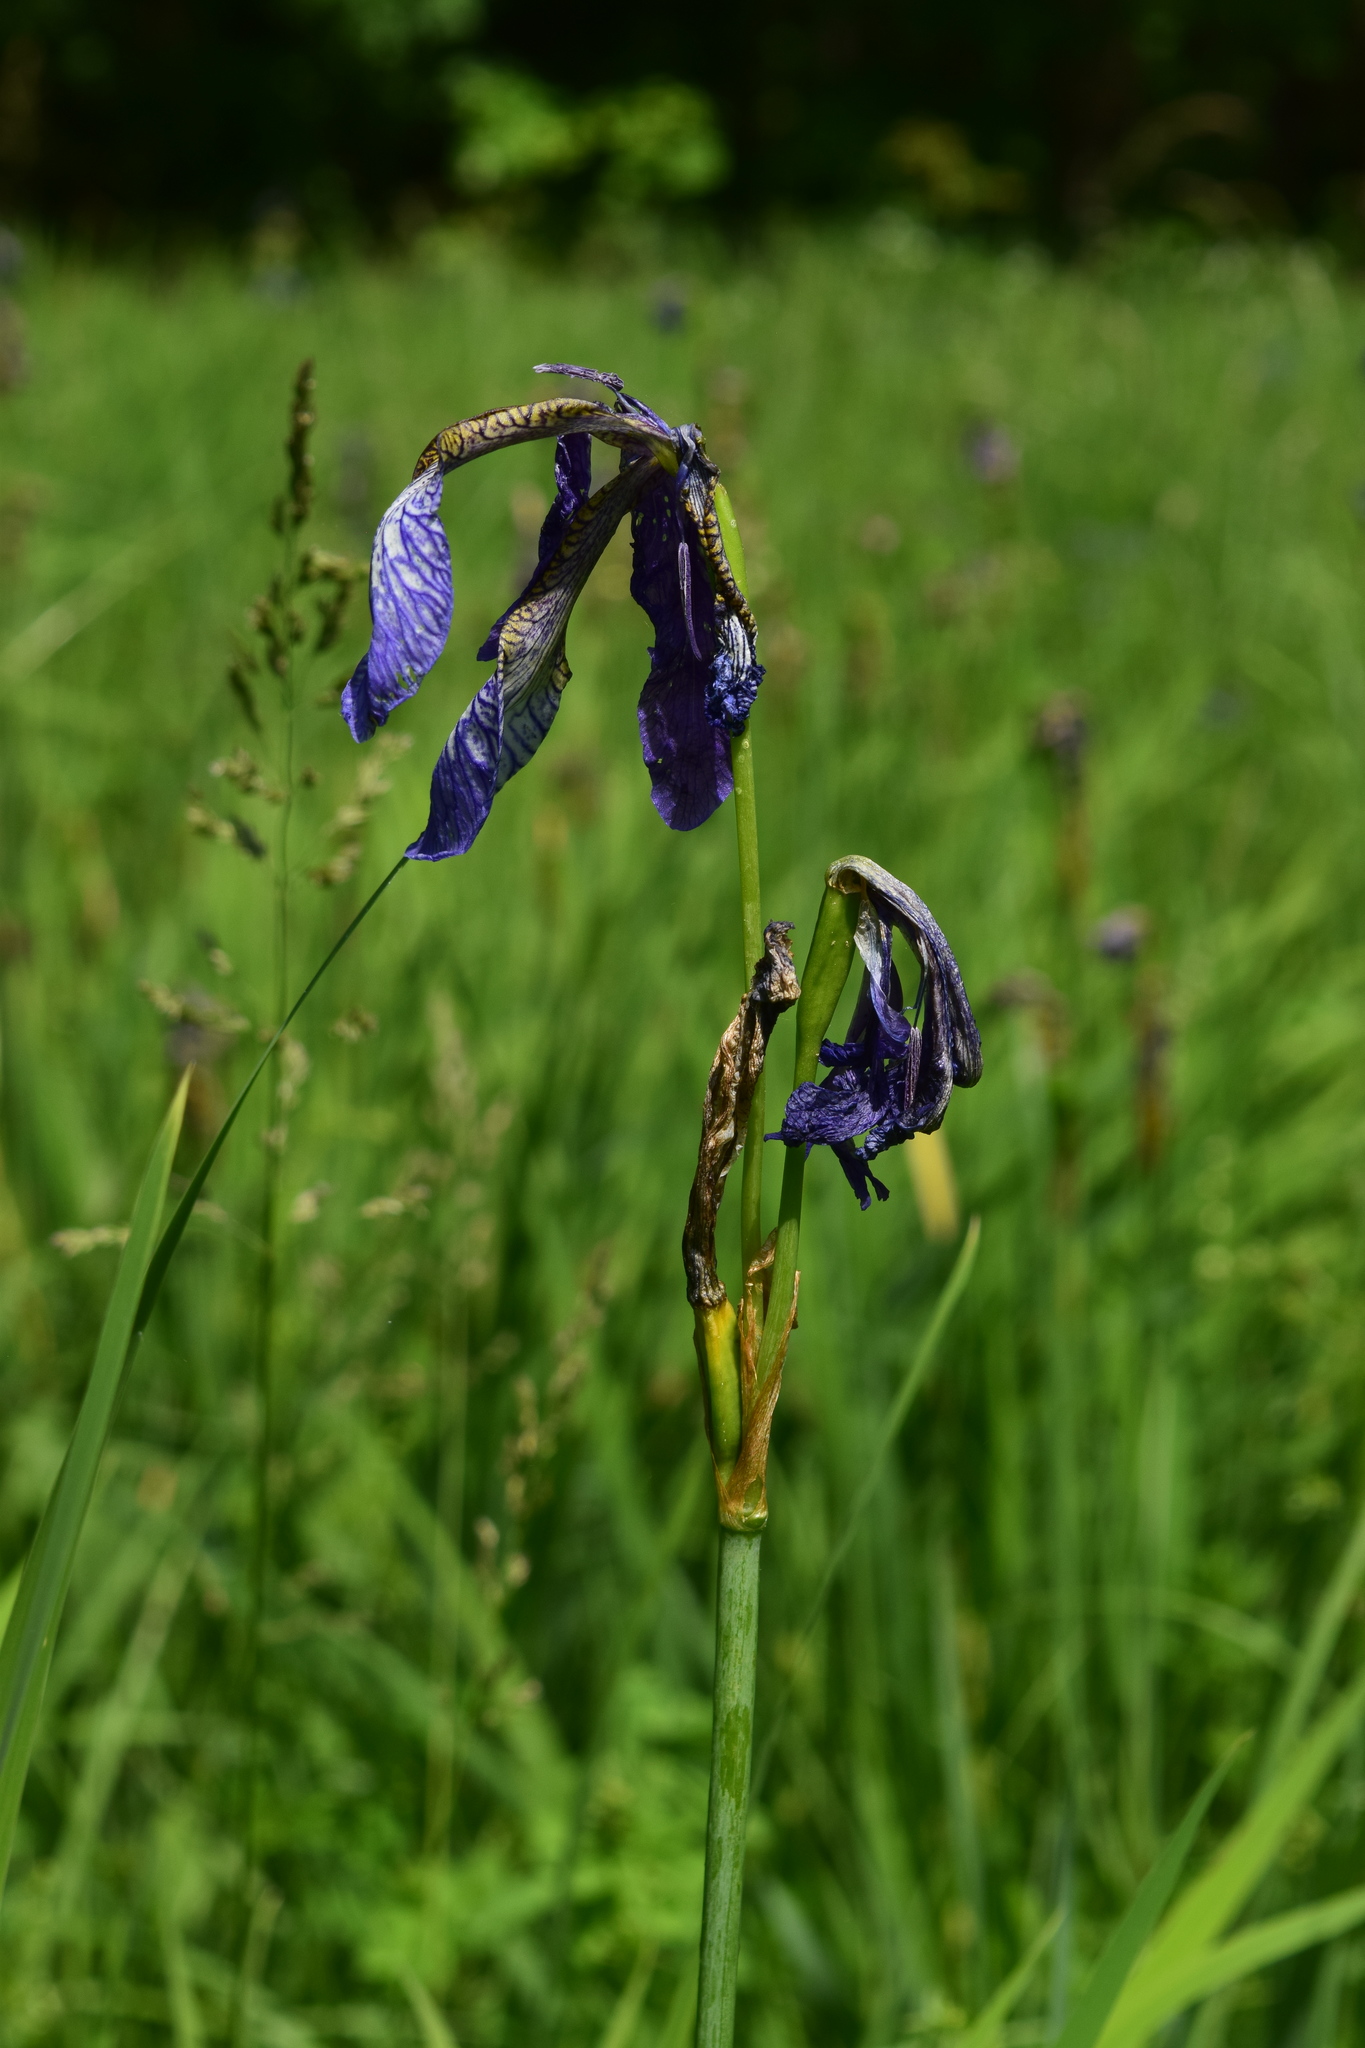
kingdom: Plantae
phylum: Tracheophyta
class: Liliopsida
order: Asparagales
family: Iridaceae
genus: Iris
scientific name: Iris sibirica
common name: Siberian iris
